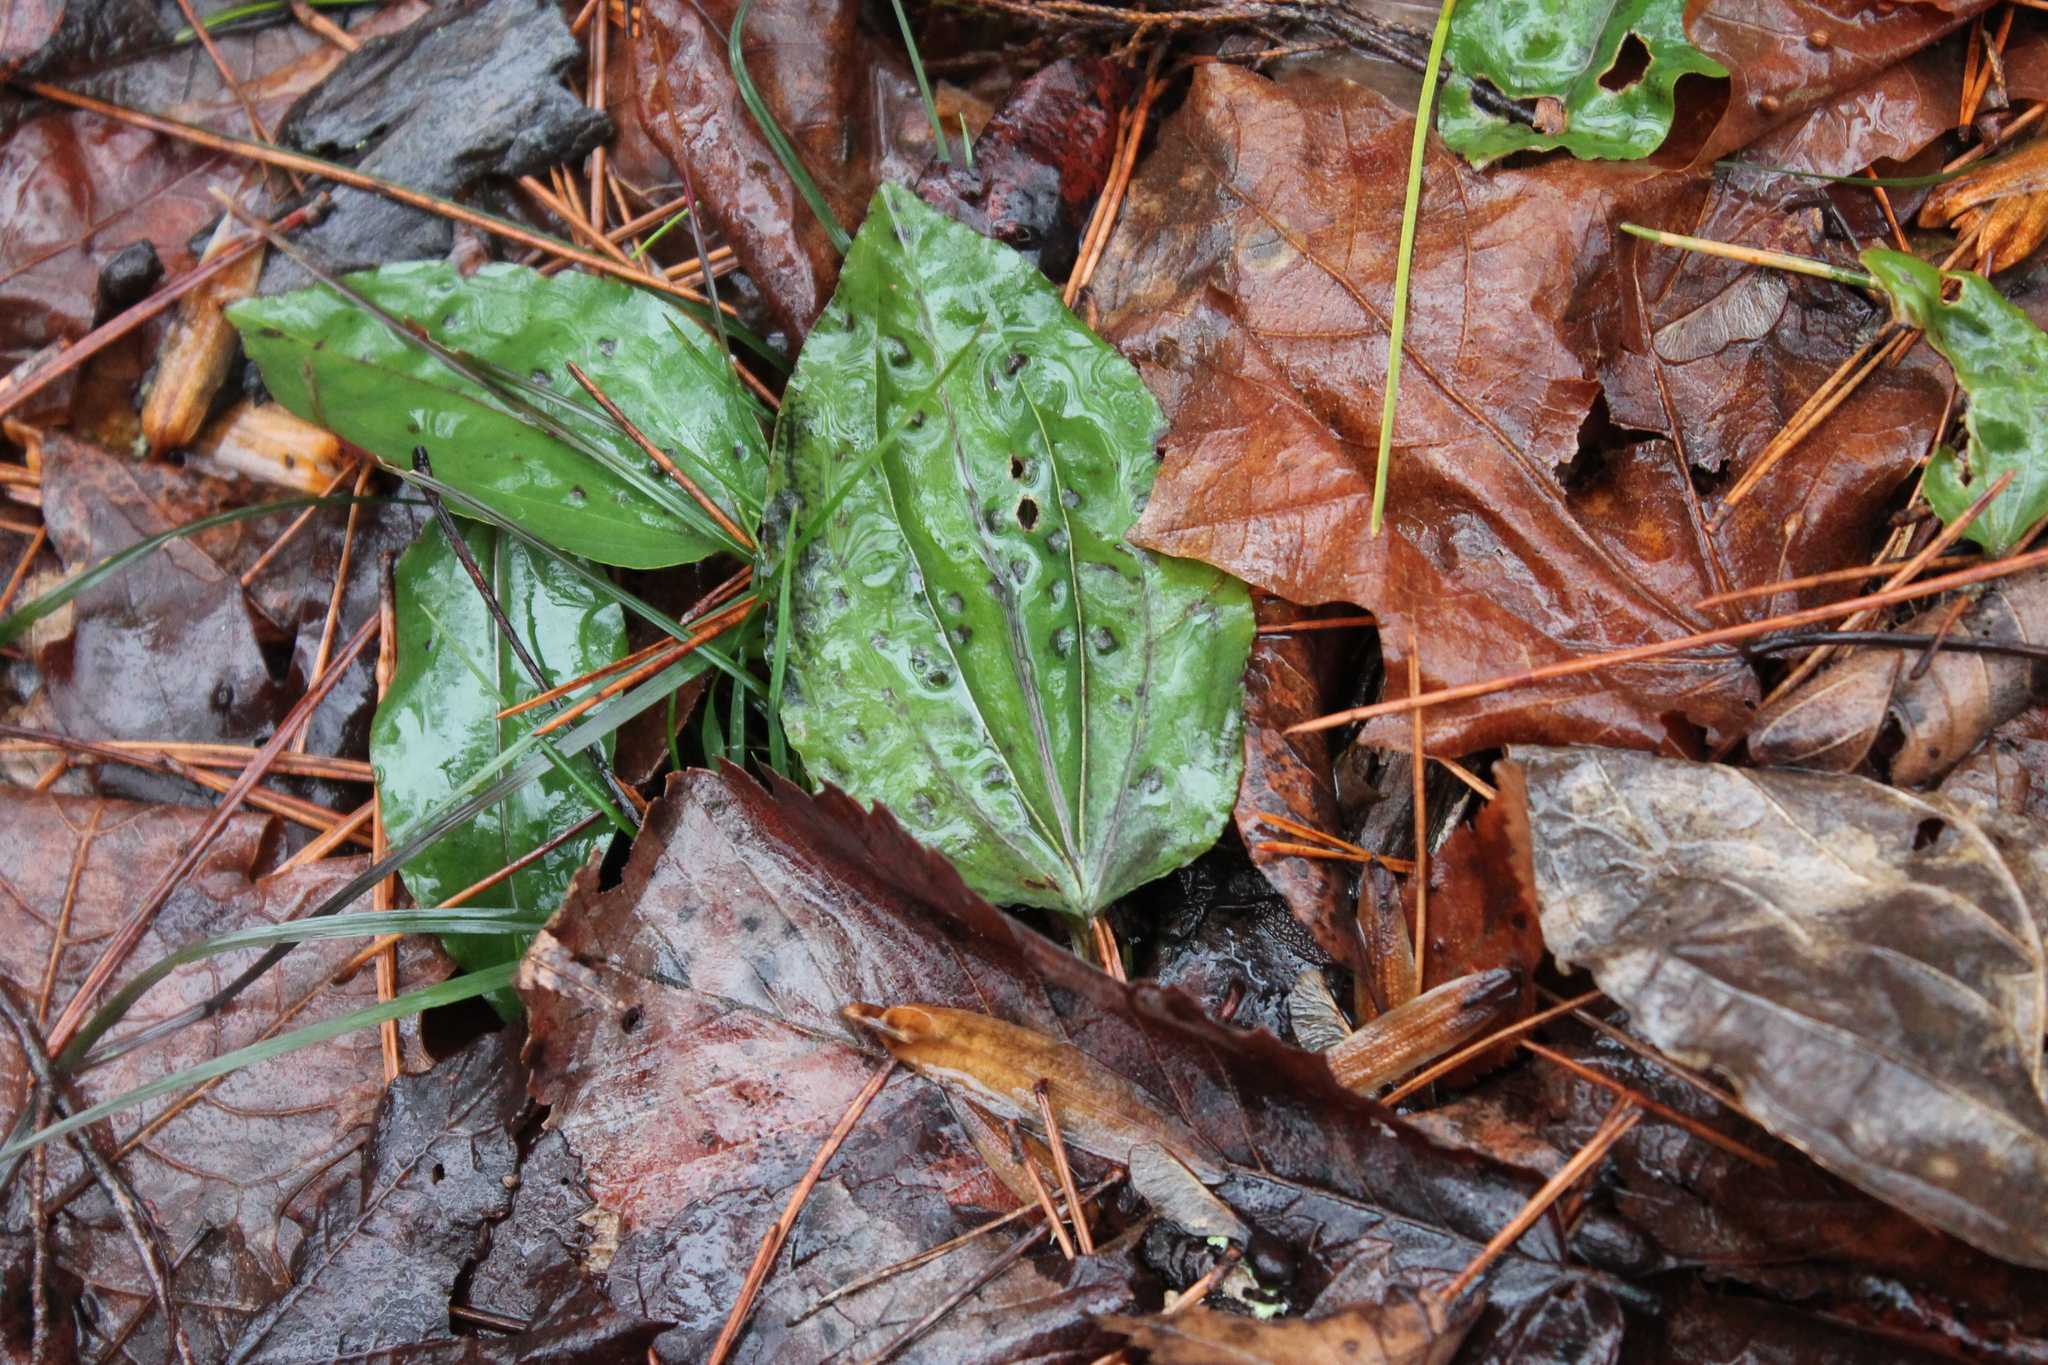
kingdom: Plantae
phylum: Tracheophyta
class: Liliopsida
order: Asparagales
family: Orchidaceae
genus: Tipularia
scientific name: Tipularia discolor
